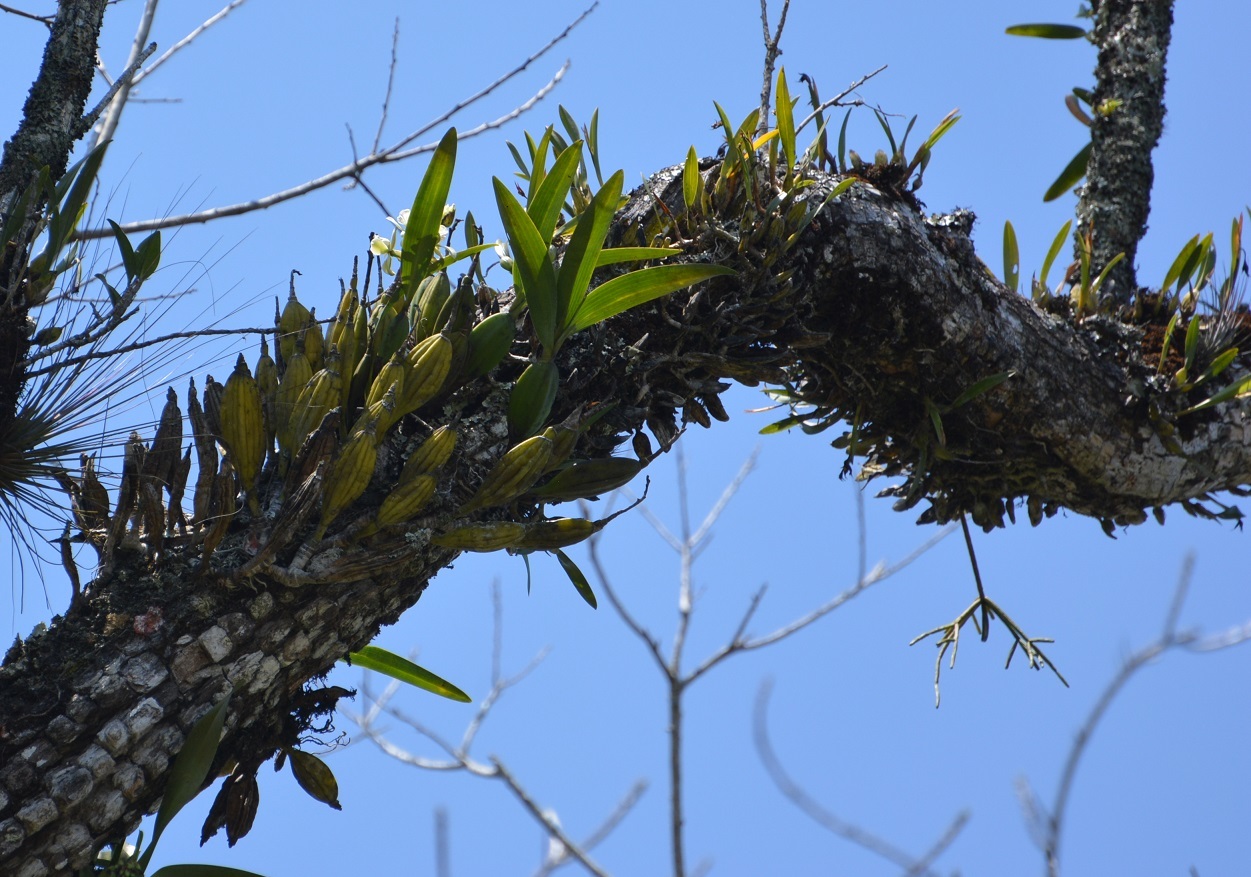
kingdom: Plantae
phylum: Tracheophyta
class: Liliopsida
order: Asparagales
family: Orchidaceae
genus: Prosthechea
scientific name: Prosthechea radiata
